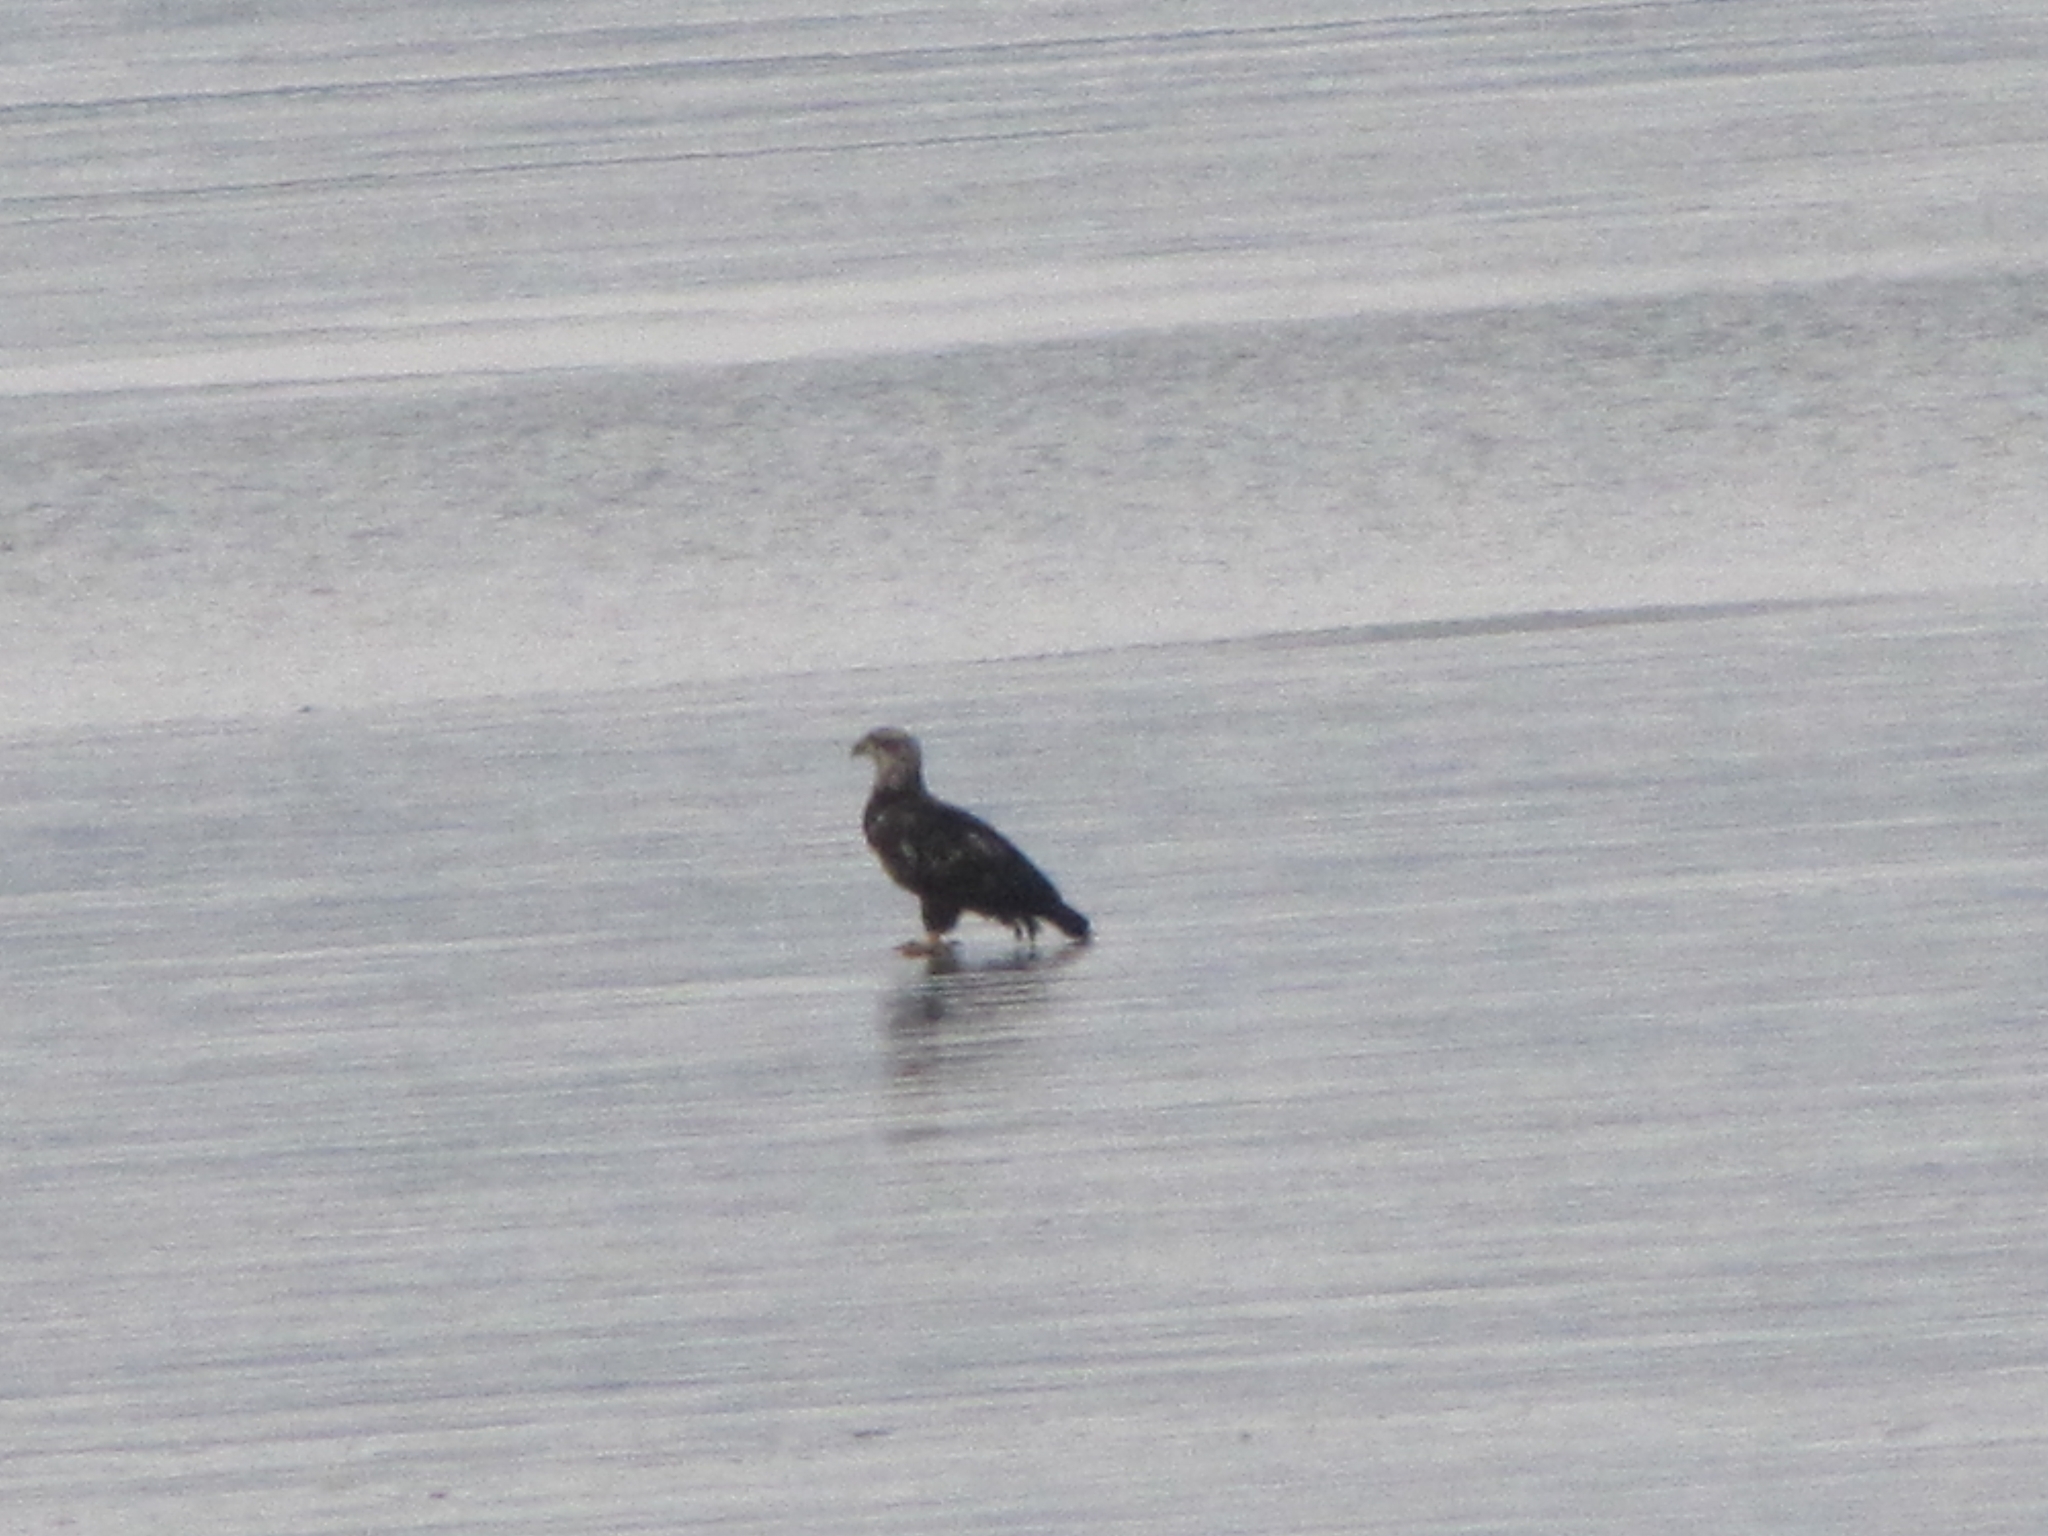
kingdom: Animalia
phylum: Chordata
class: Aves
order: Accipitriformes
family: Accipitridae
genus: Haliaeetus
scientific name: Haliaeetus leucocephalus
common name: Bald eagle
